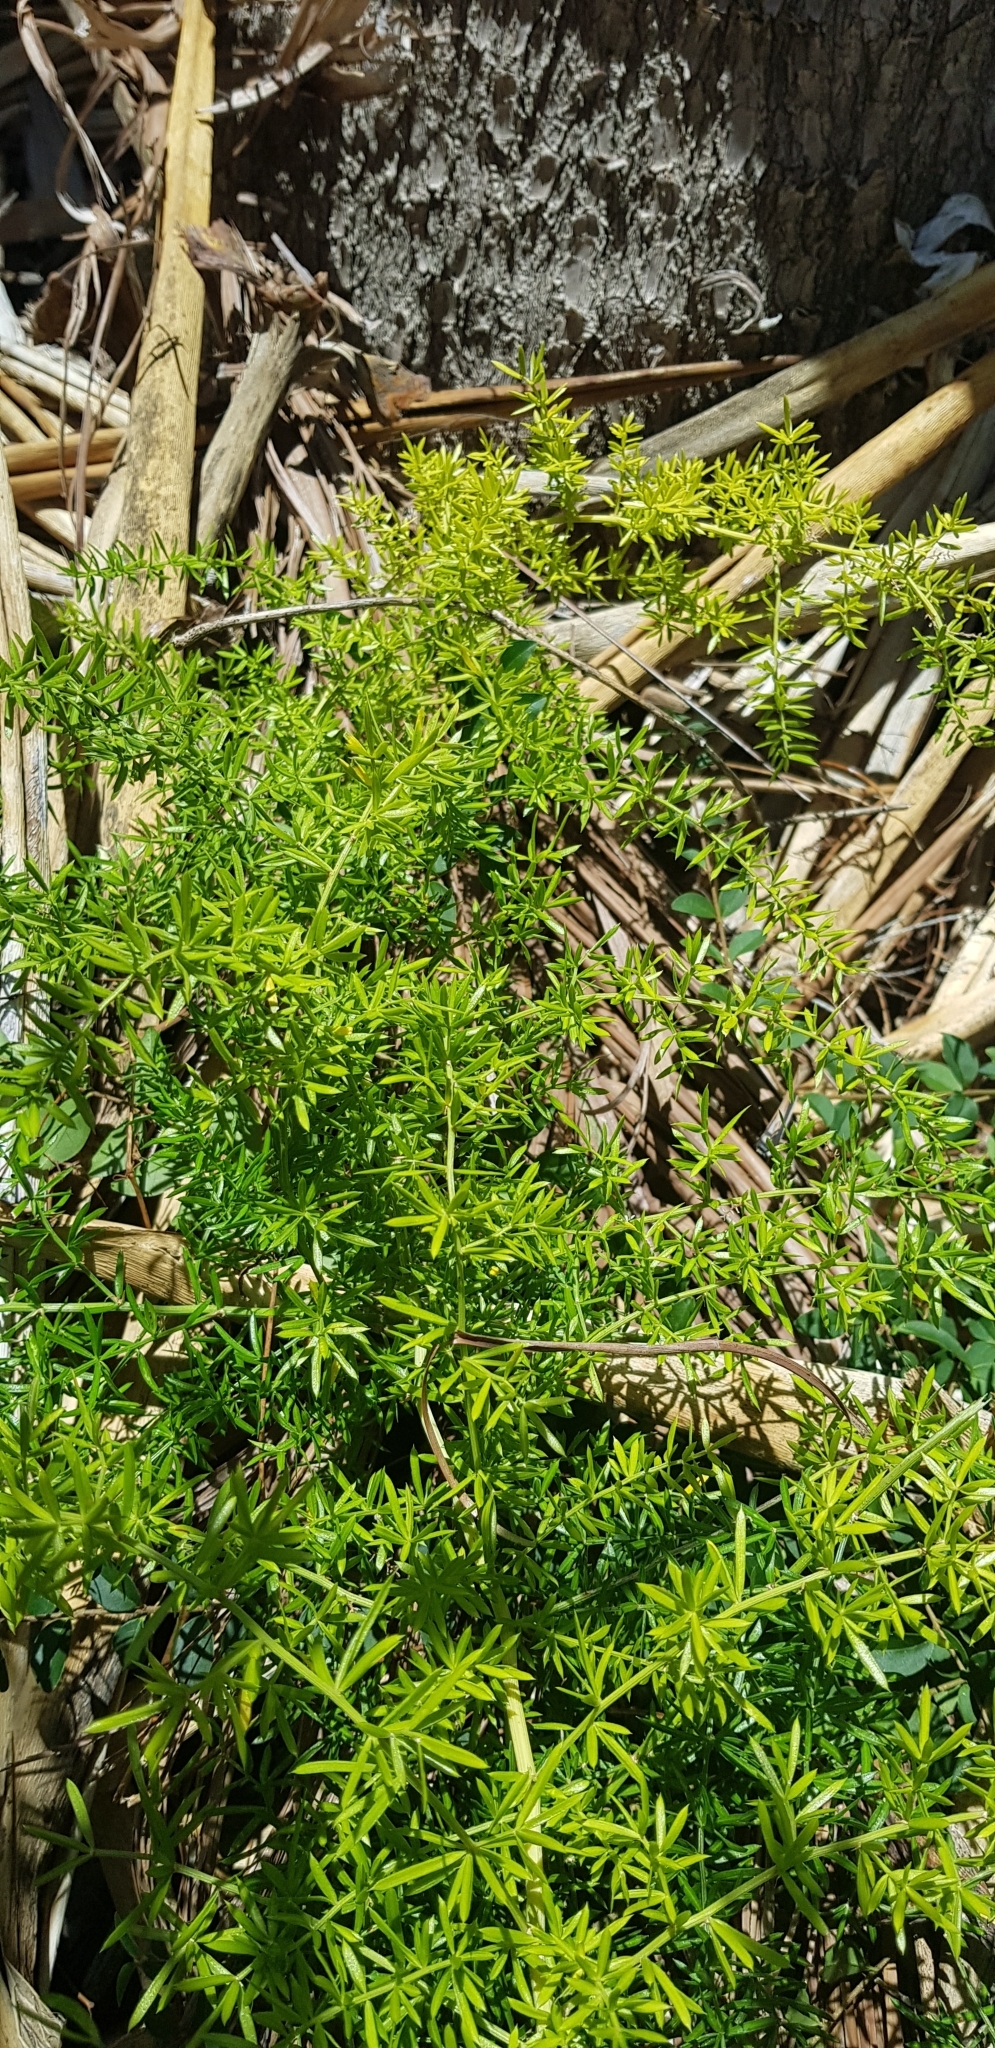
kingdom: Plantae
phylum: Tracheophyta
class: Liliopsida
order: Asparagales
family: Asparagaceae
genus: Asparagus
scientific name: Asparagus aethiopicus
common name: Sprenger's asparagus fern
